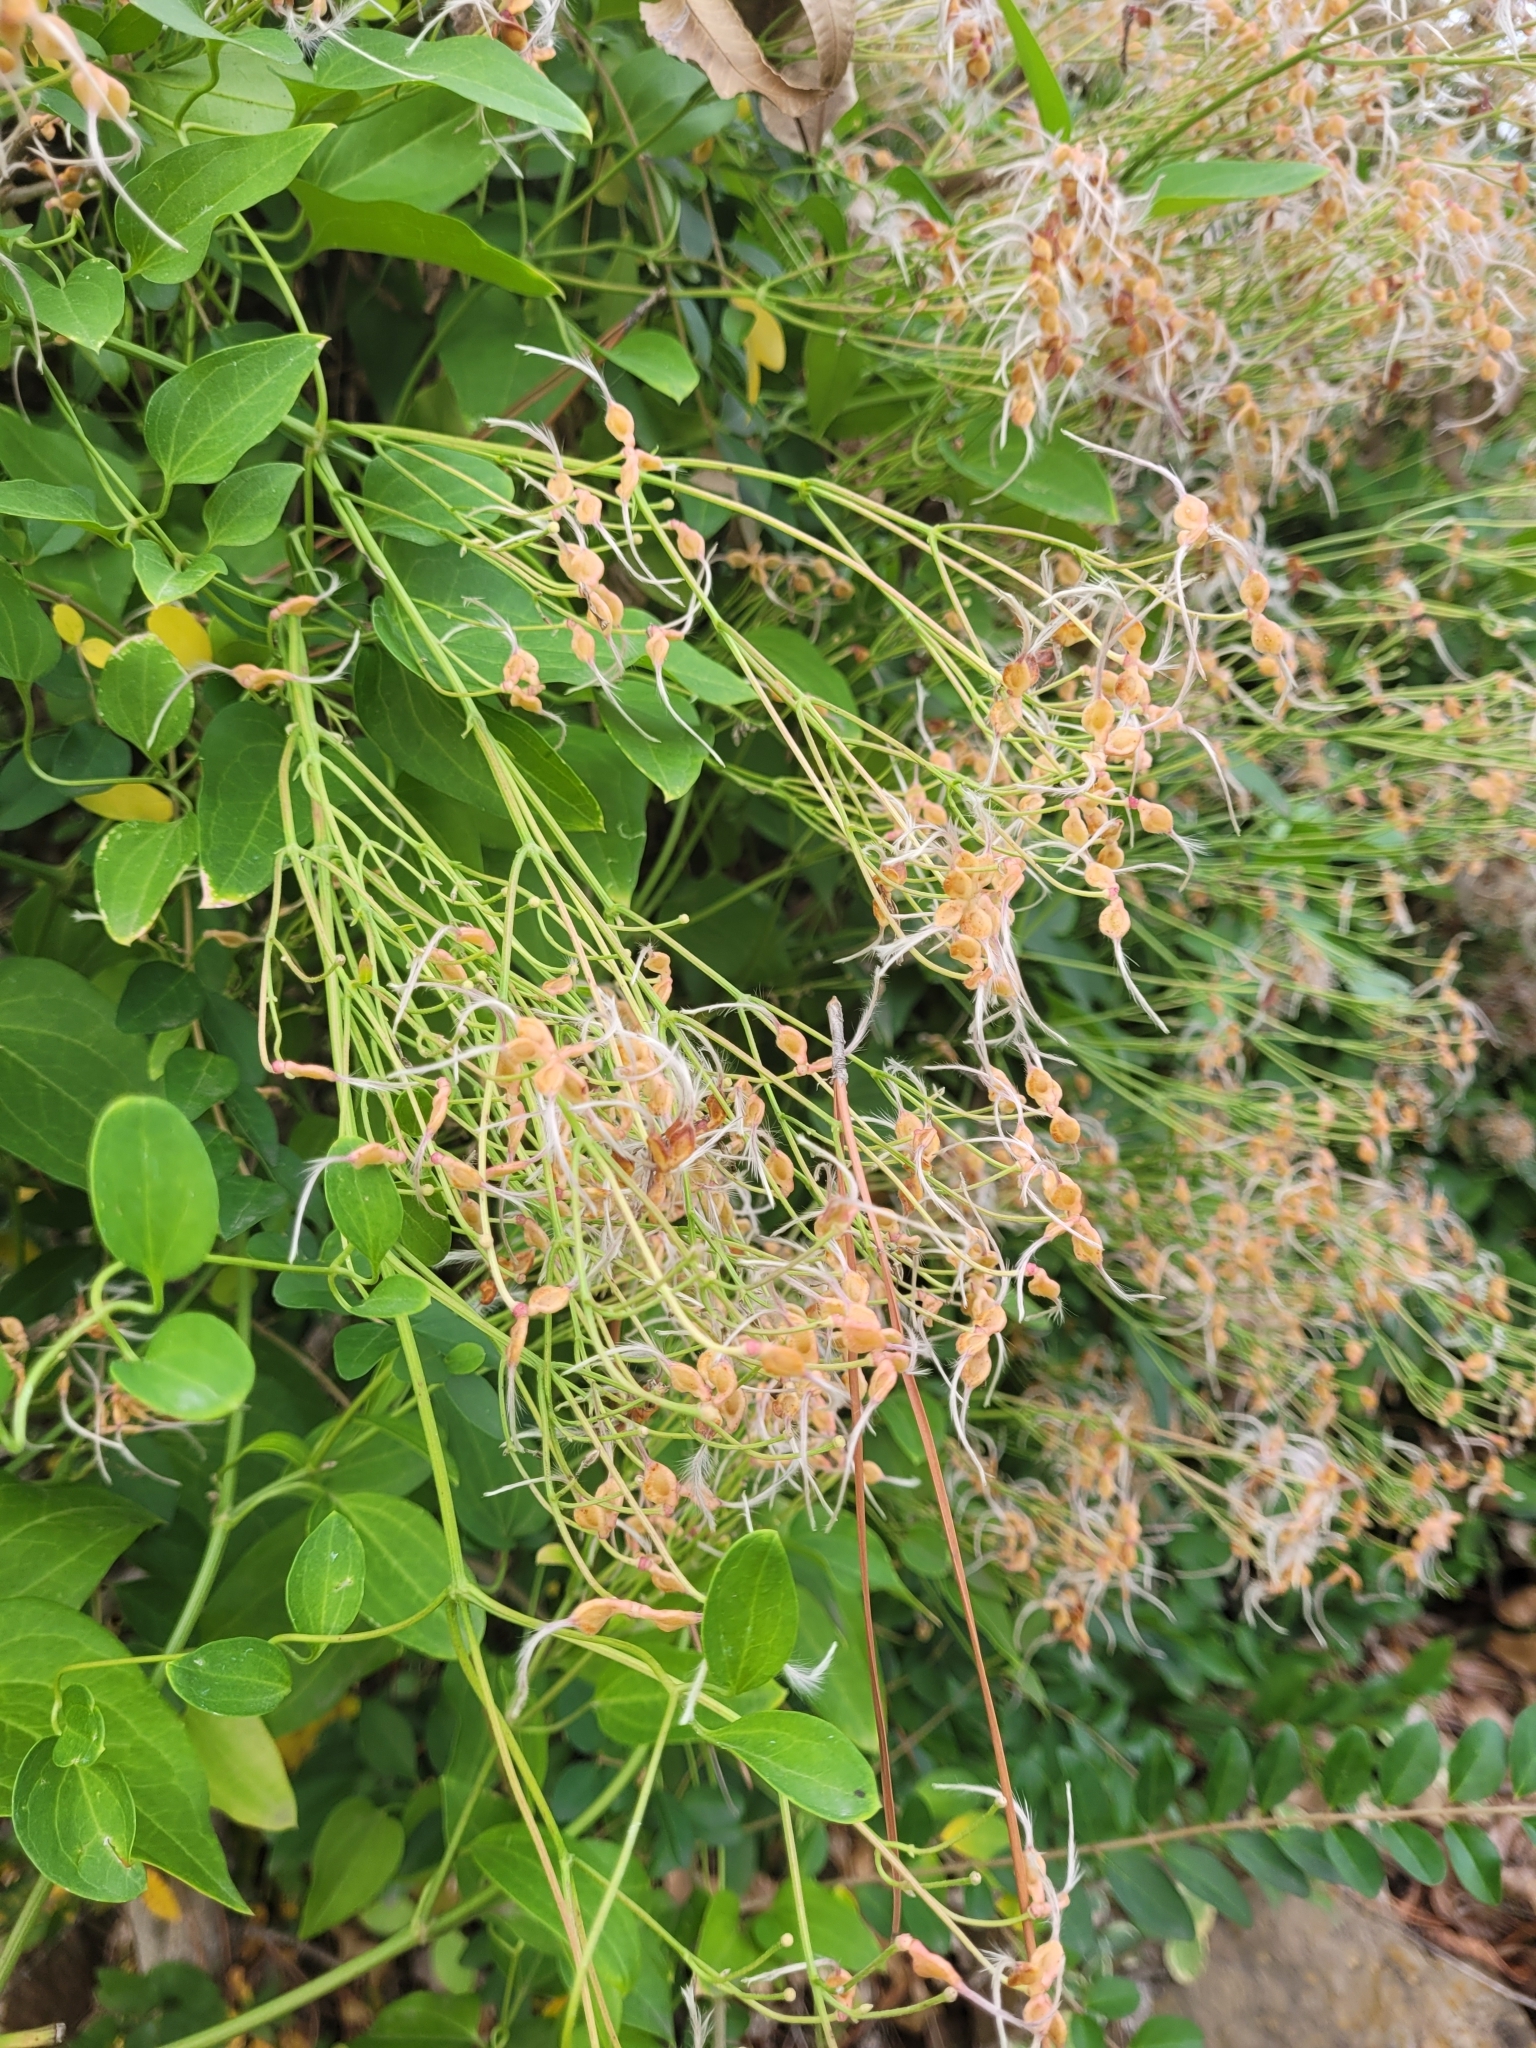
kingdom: Plantae
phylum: Tracheophyta
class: Magnoliopsida
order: Ranunculales
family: Ranunculaceae
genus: Clematis
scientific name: Clematis terniflora
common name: Sweet autumn clematis
